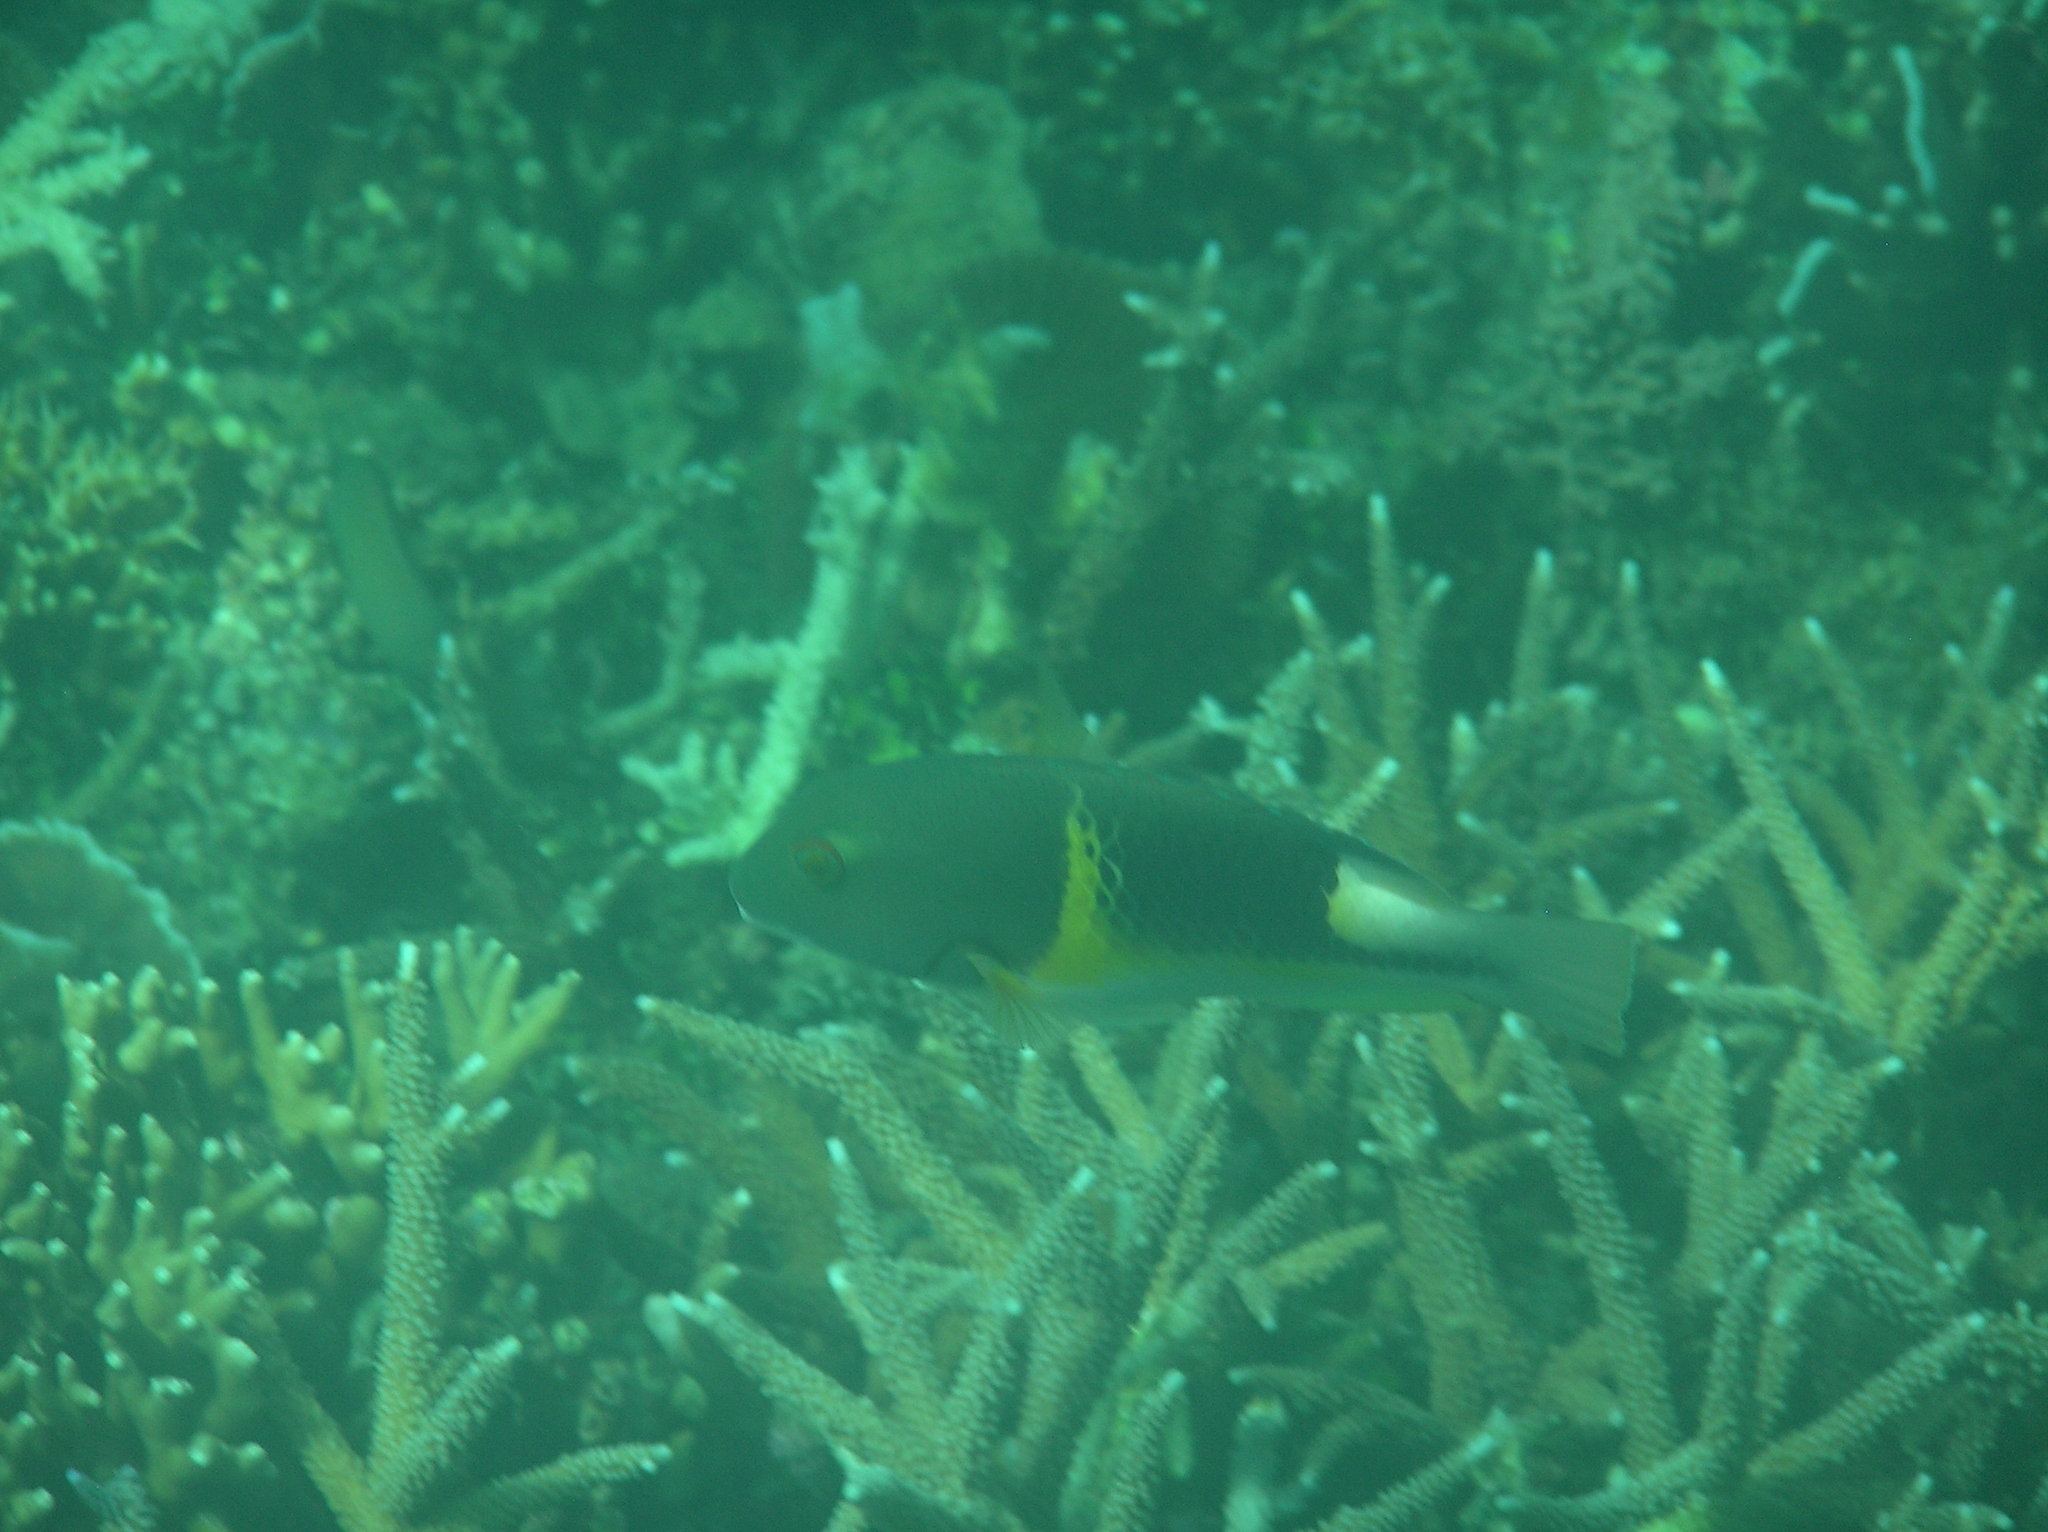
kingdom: Animalia
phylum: Chordata
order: Perciformes
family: Labridae
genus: Choerodon
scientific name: Choerodon anchorago
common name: Anchor tuskfish
